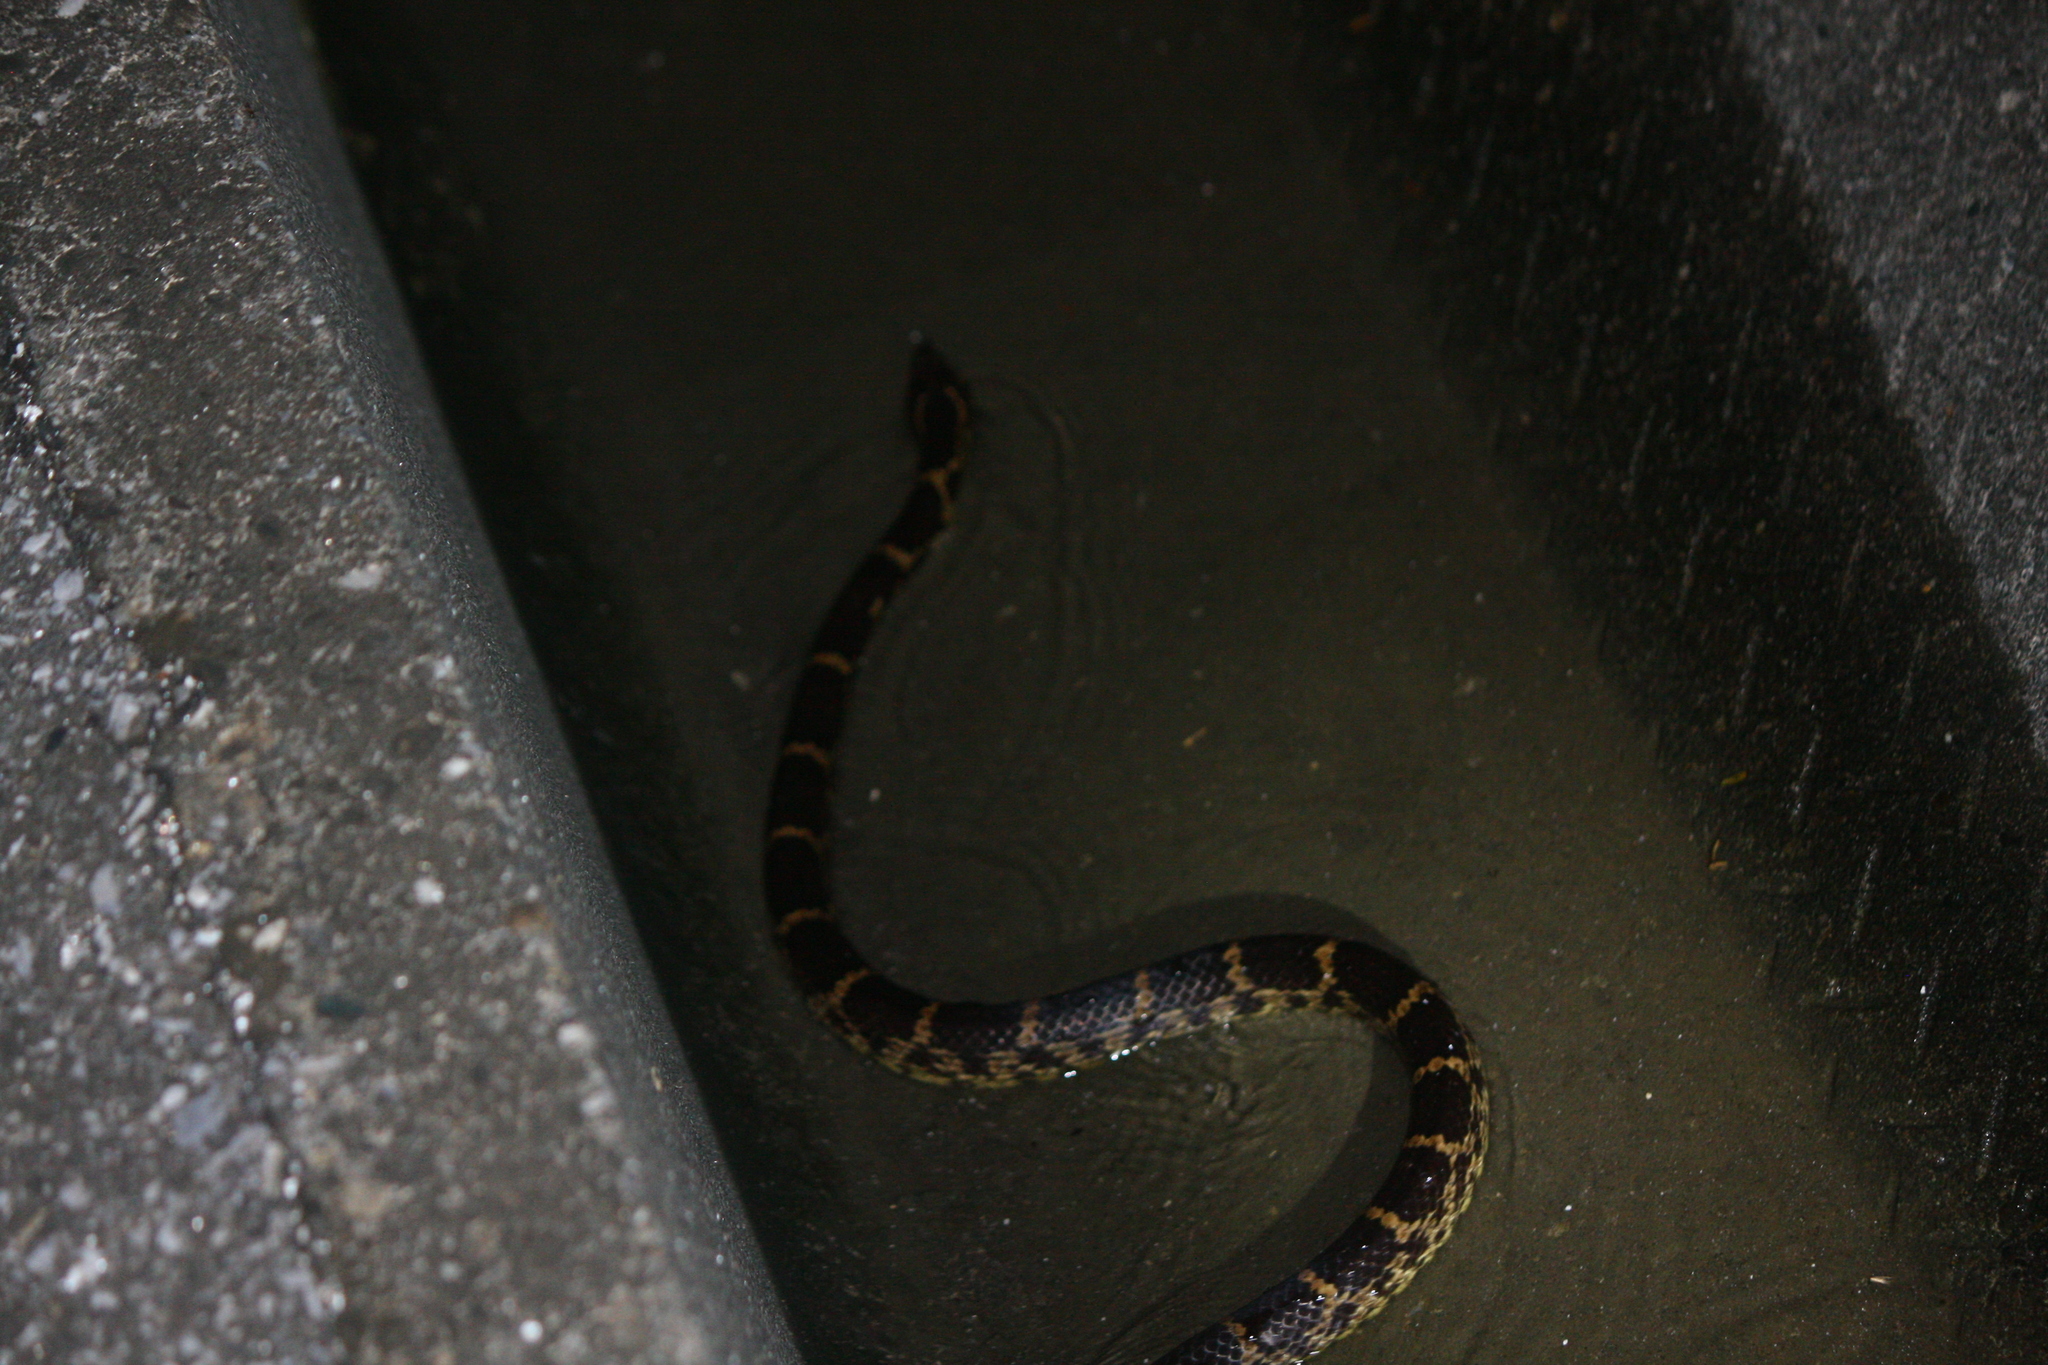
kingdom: Animalia
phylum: Chordata
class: Squamata
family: Colubridae
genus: Lycodon
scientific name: Lycodon rufozonatus
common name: Red-banded snake
